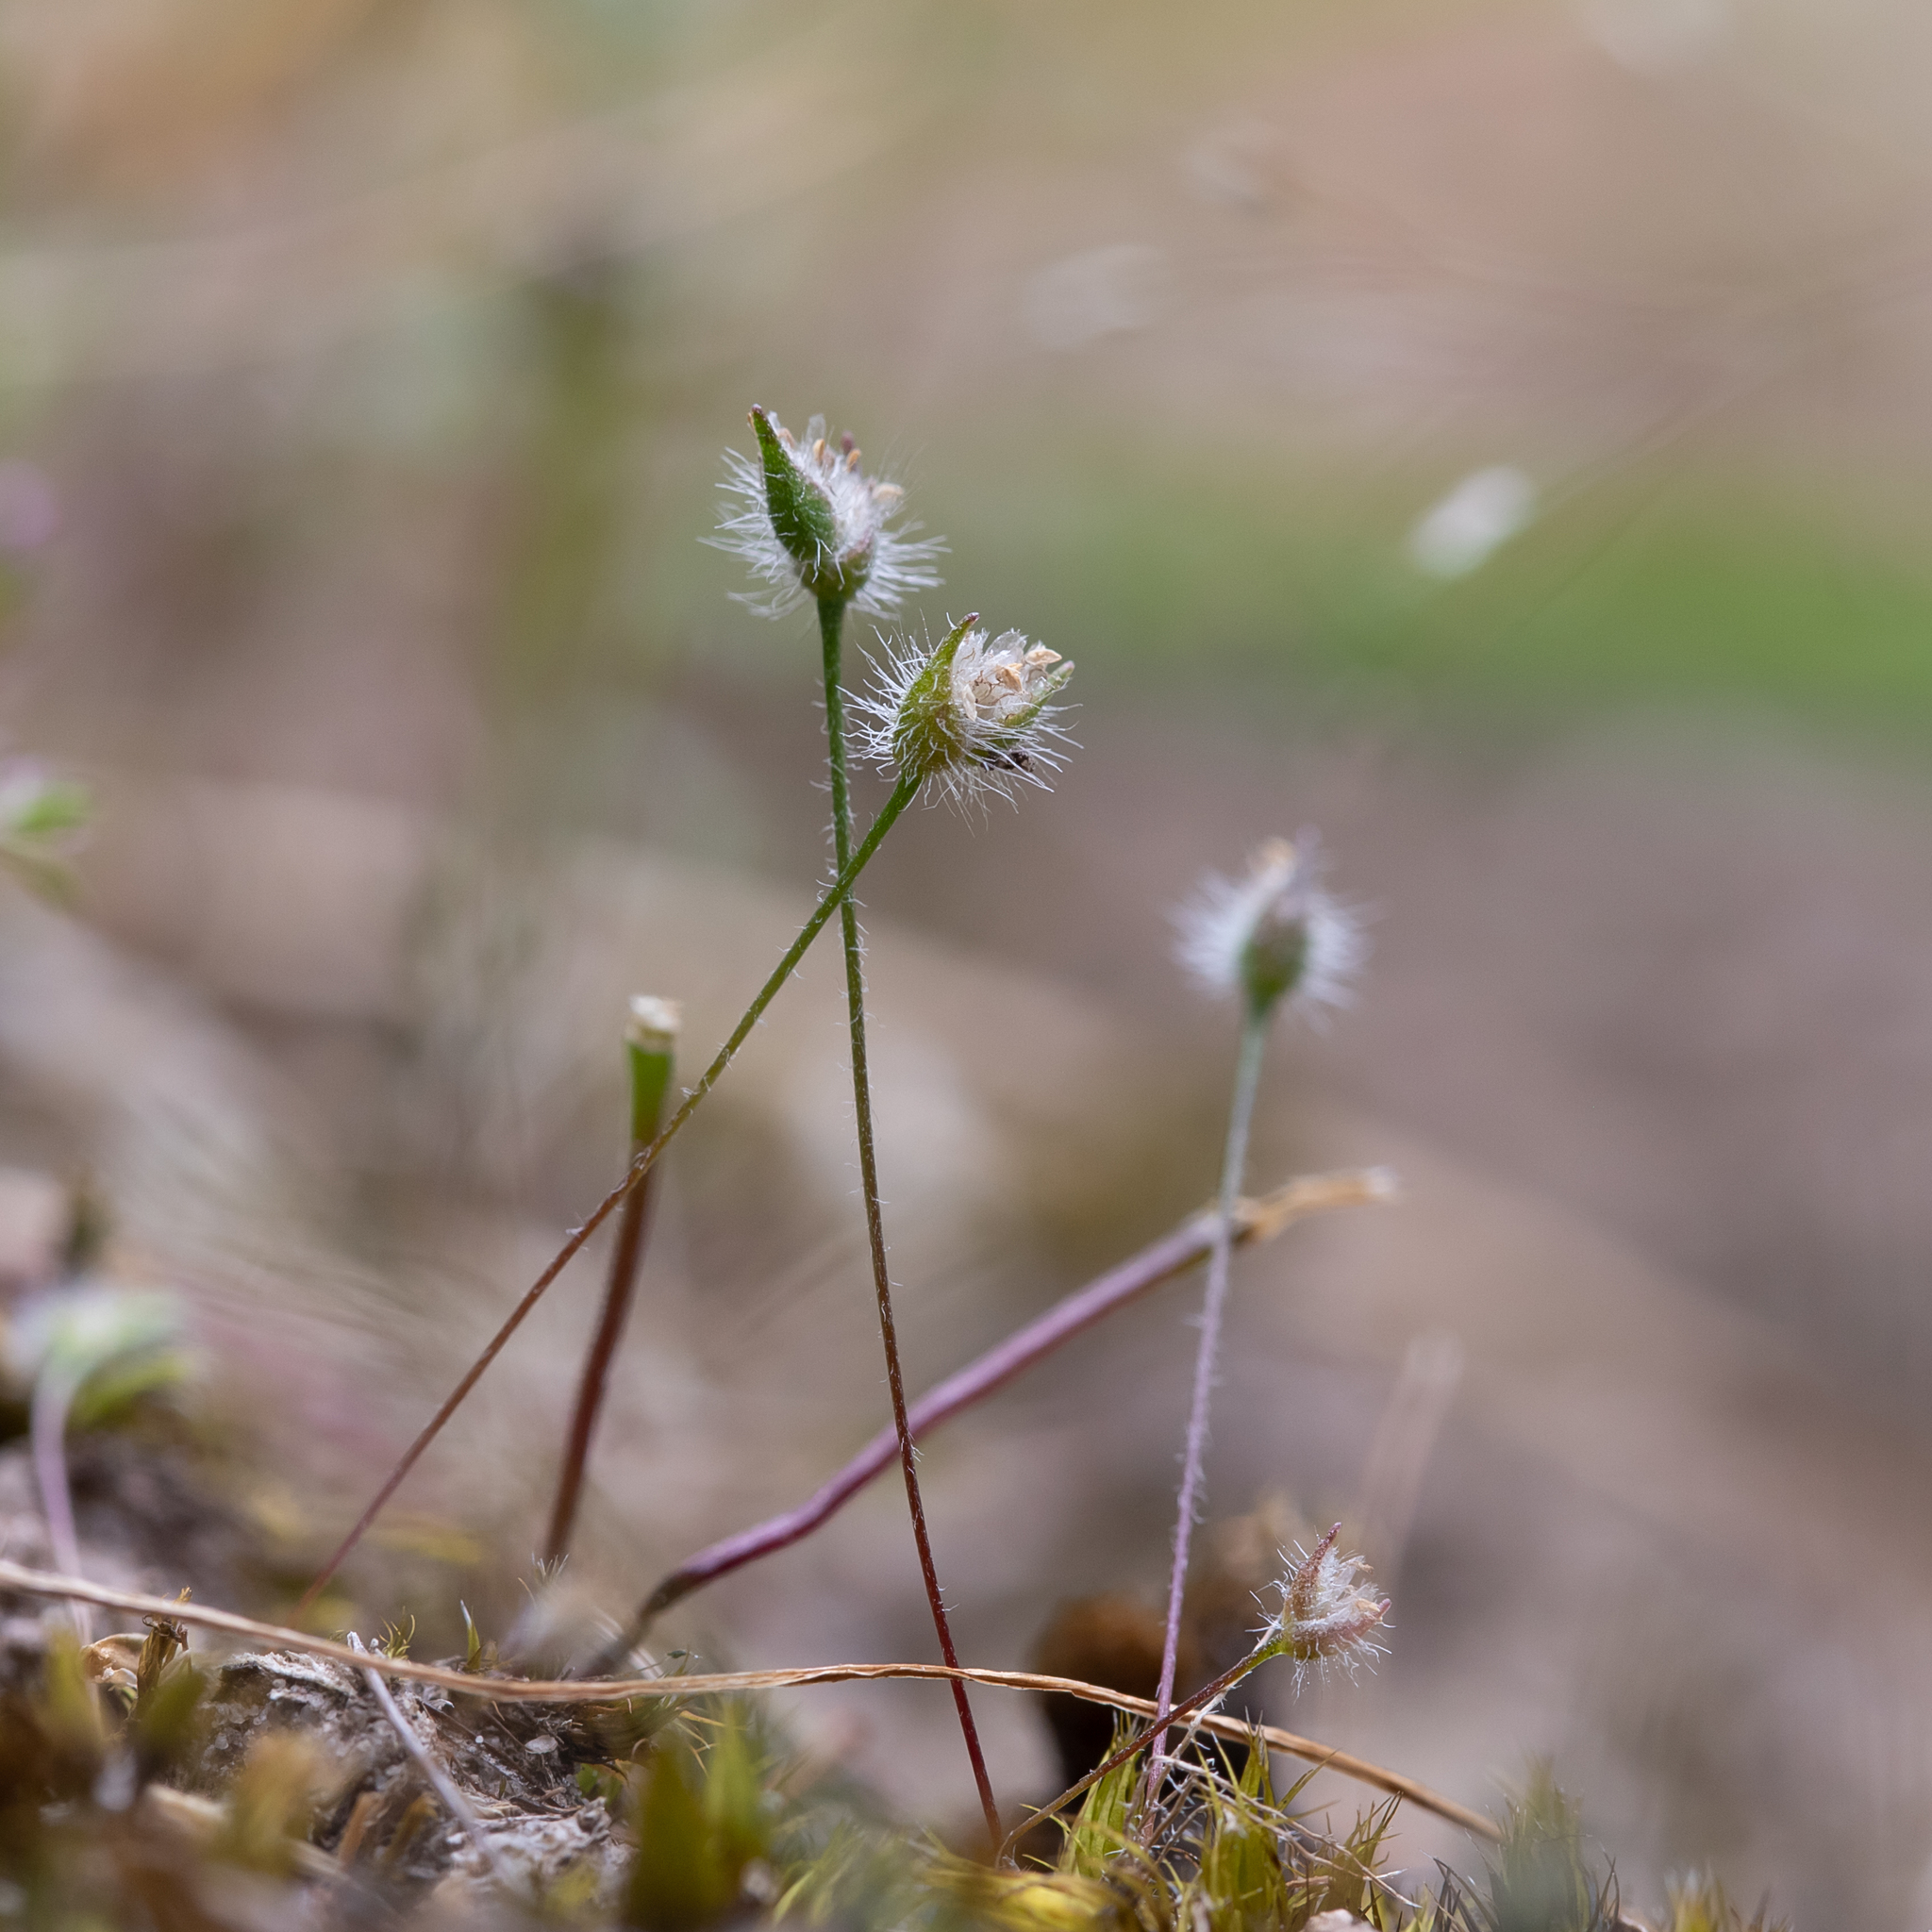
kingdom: Plantae
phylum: Tracheophyta
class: Liliopsida
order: Poales
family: Restionaceae
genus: Centrolepis
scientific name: Centrolepis strigosa
